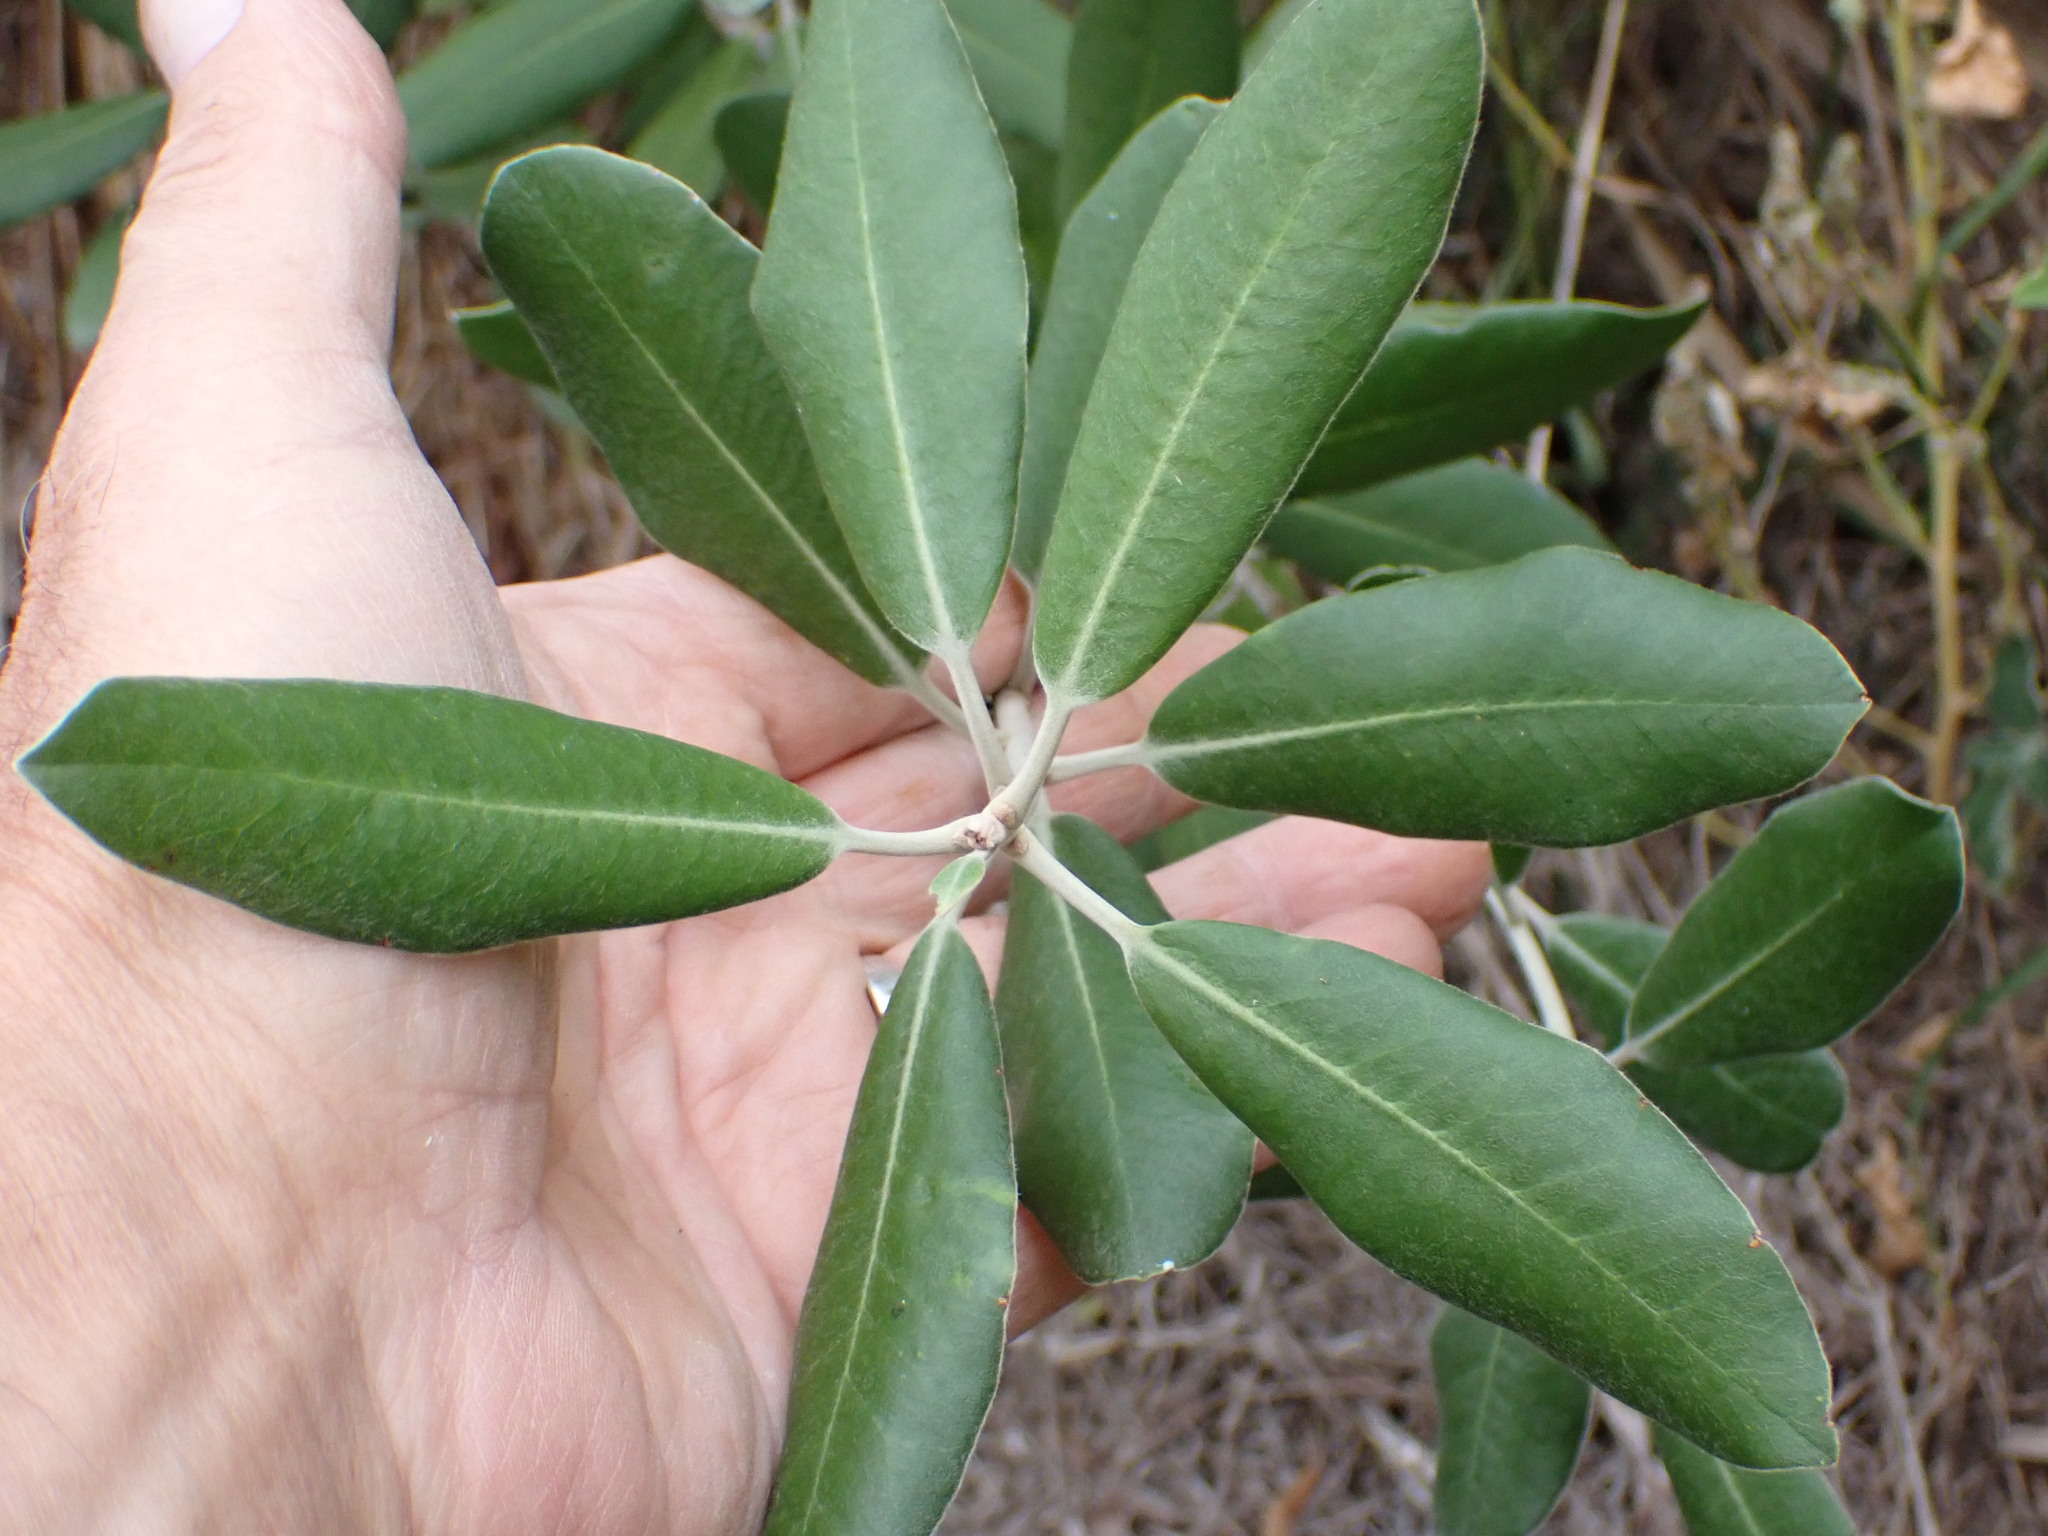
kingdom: Plantae
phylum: Tracheophyta
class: Magnoliopsida
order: Apiales
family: Pittosporaceae
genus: Pittosporum
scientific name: Pittosporum ralphii
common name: Ralph's desertwillow
